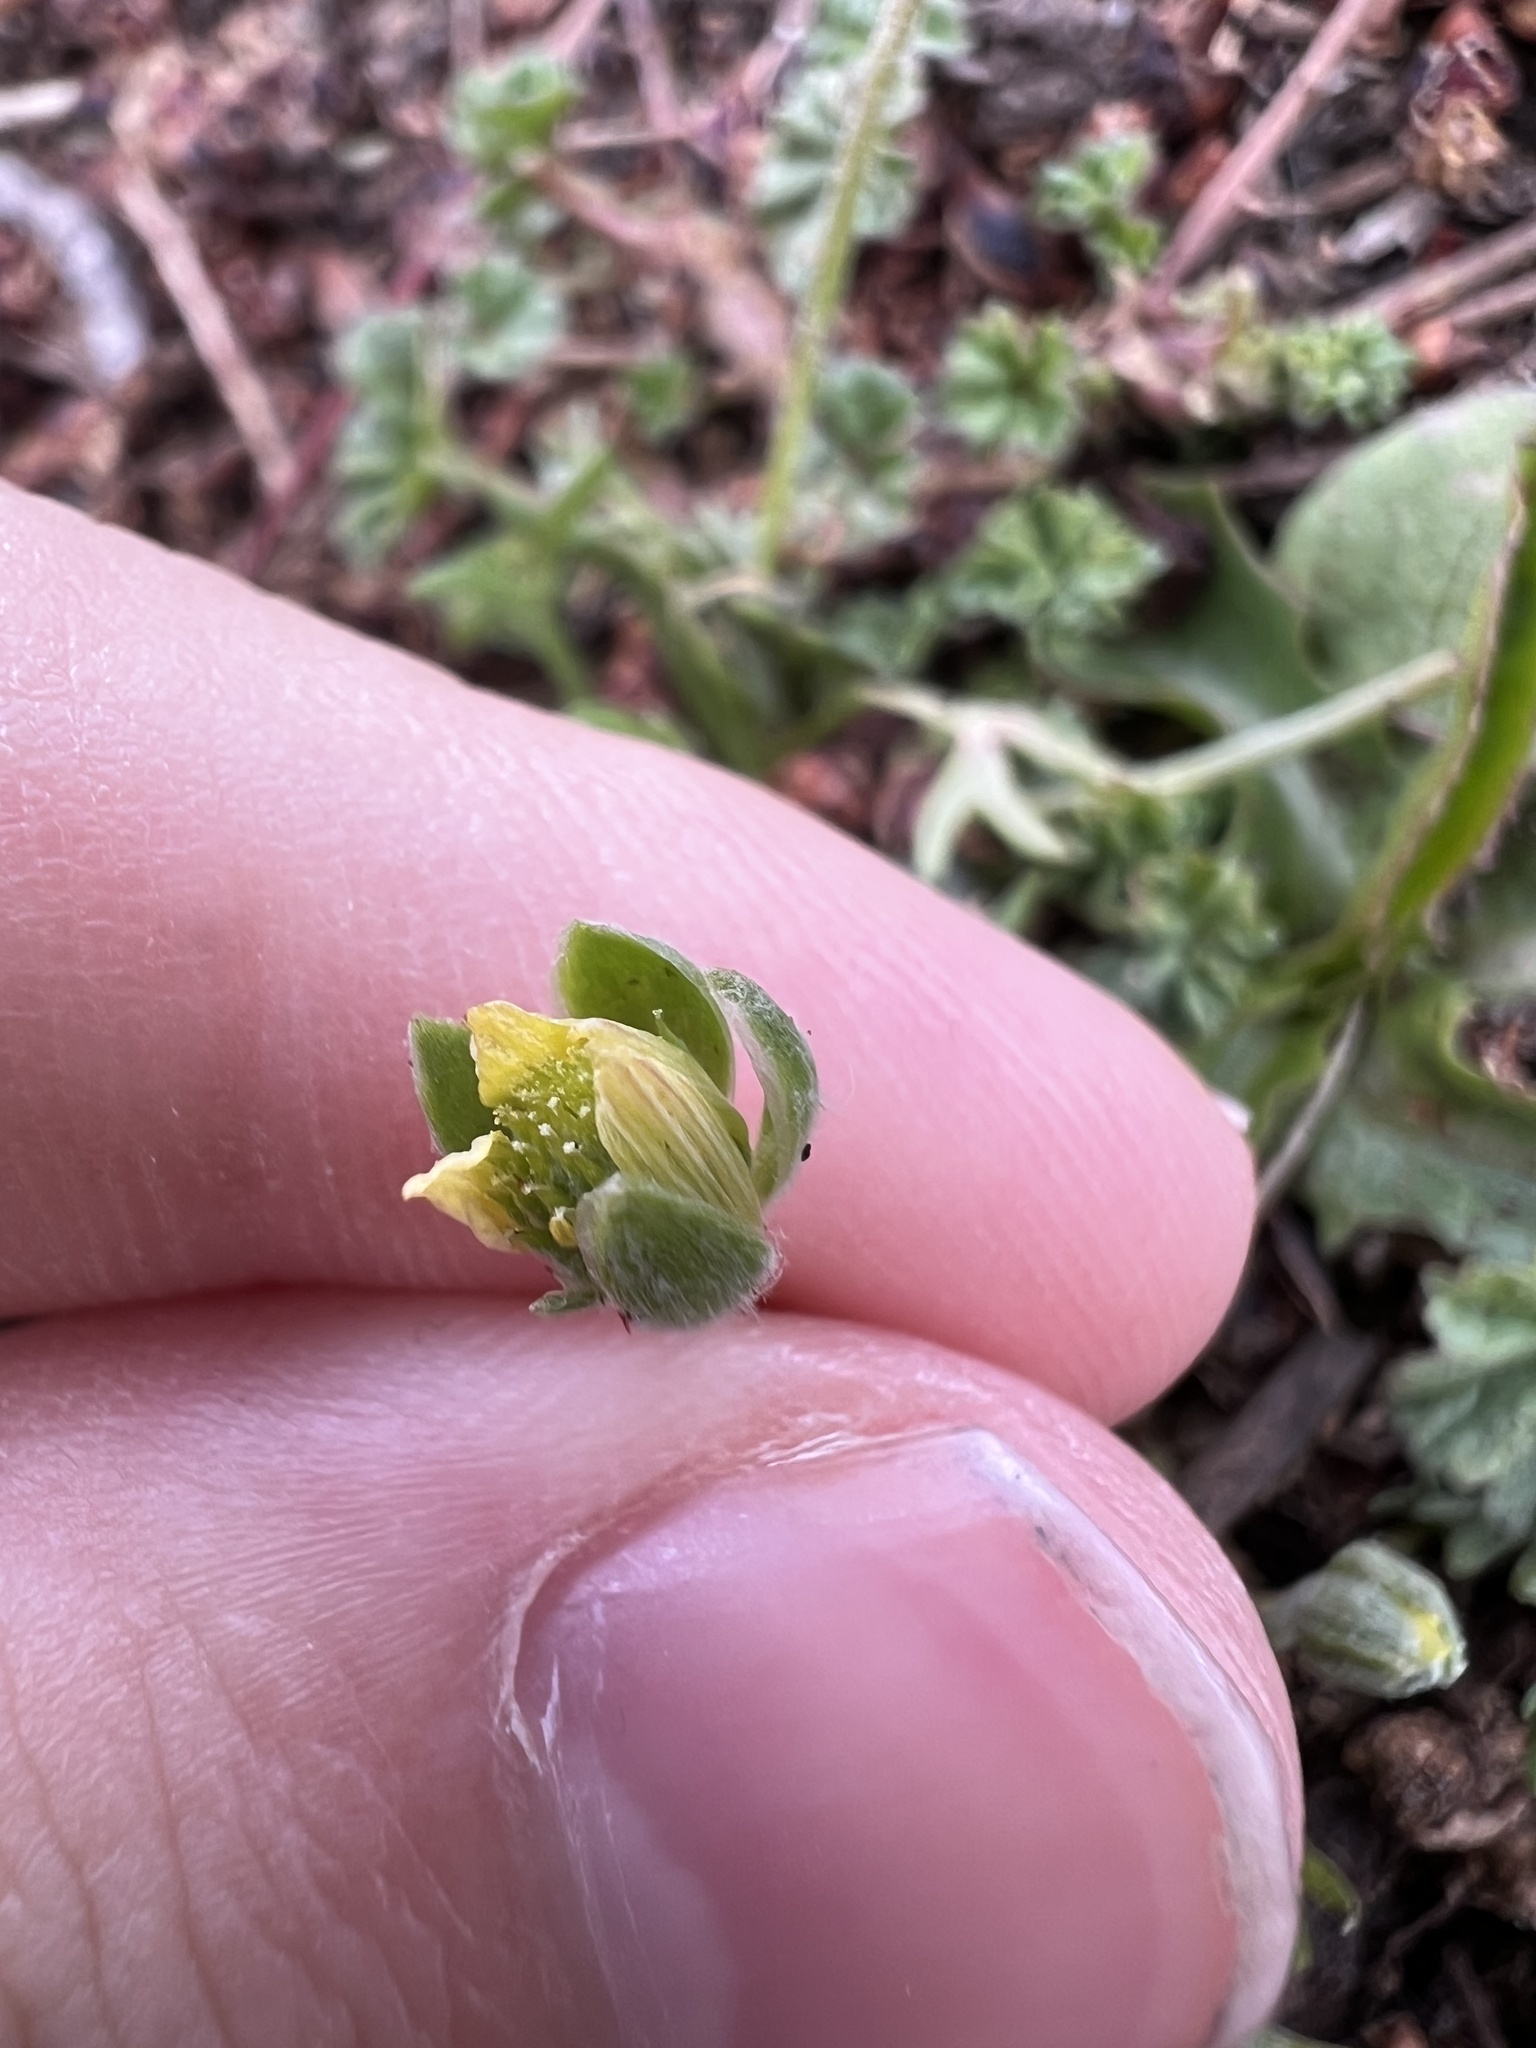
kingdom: Plantae
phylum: Tracheophyta
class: Magnoliopsida
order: Ranunculales
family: Ranunculaceae
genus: Ceratocephala
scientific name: Ceratocephala orthoceras
